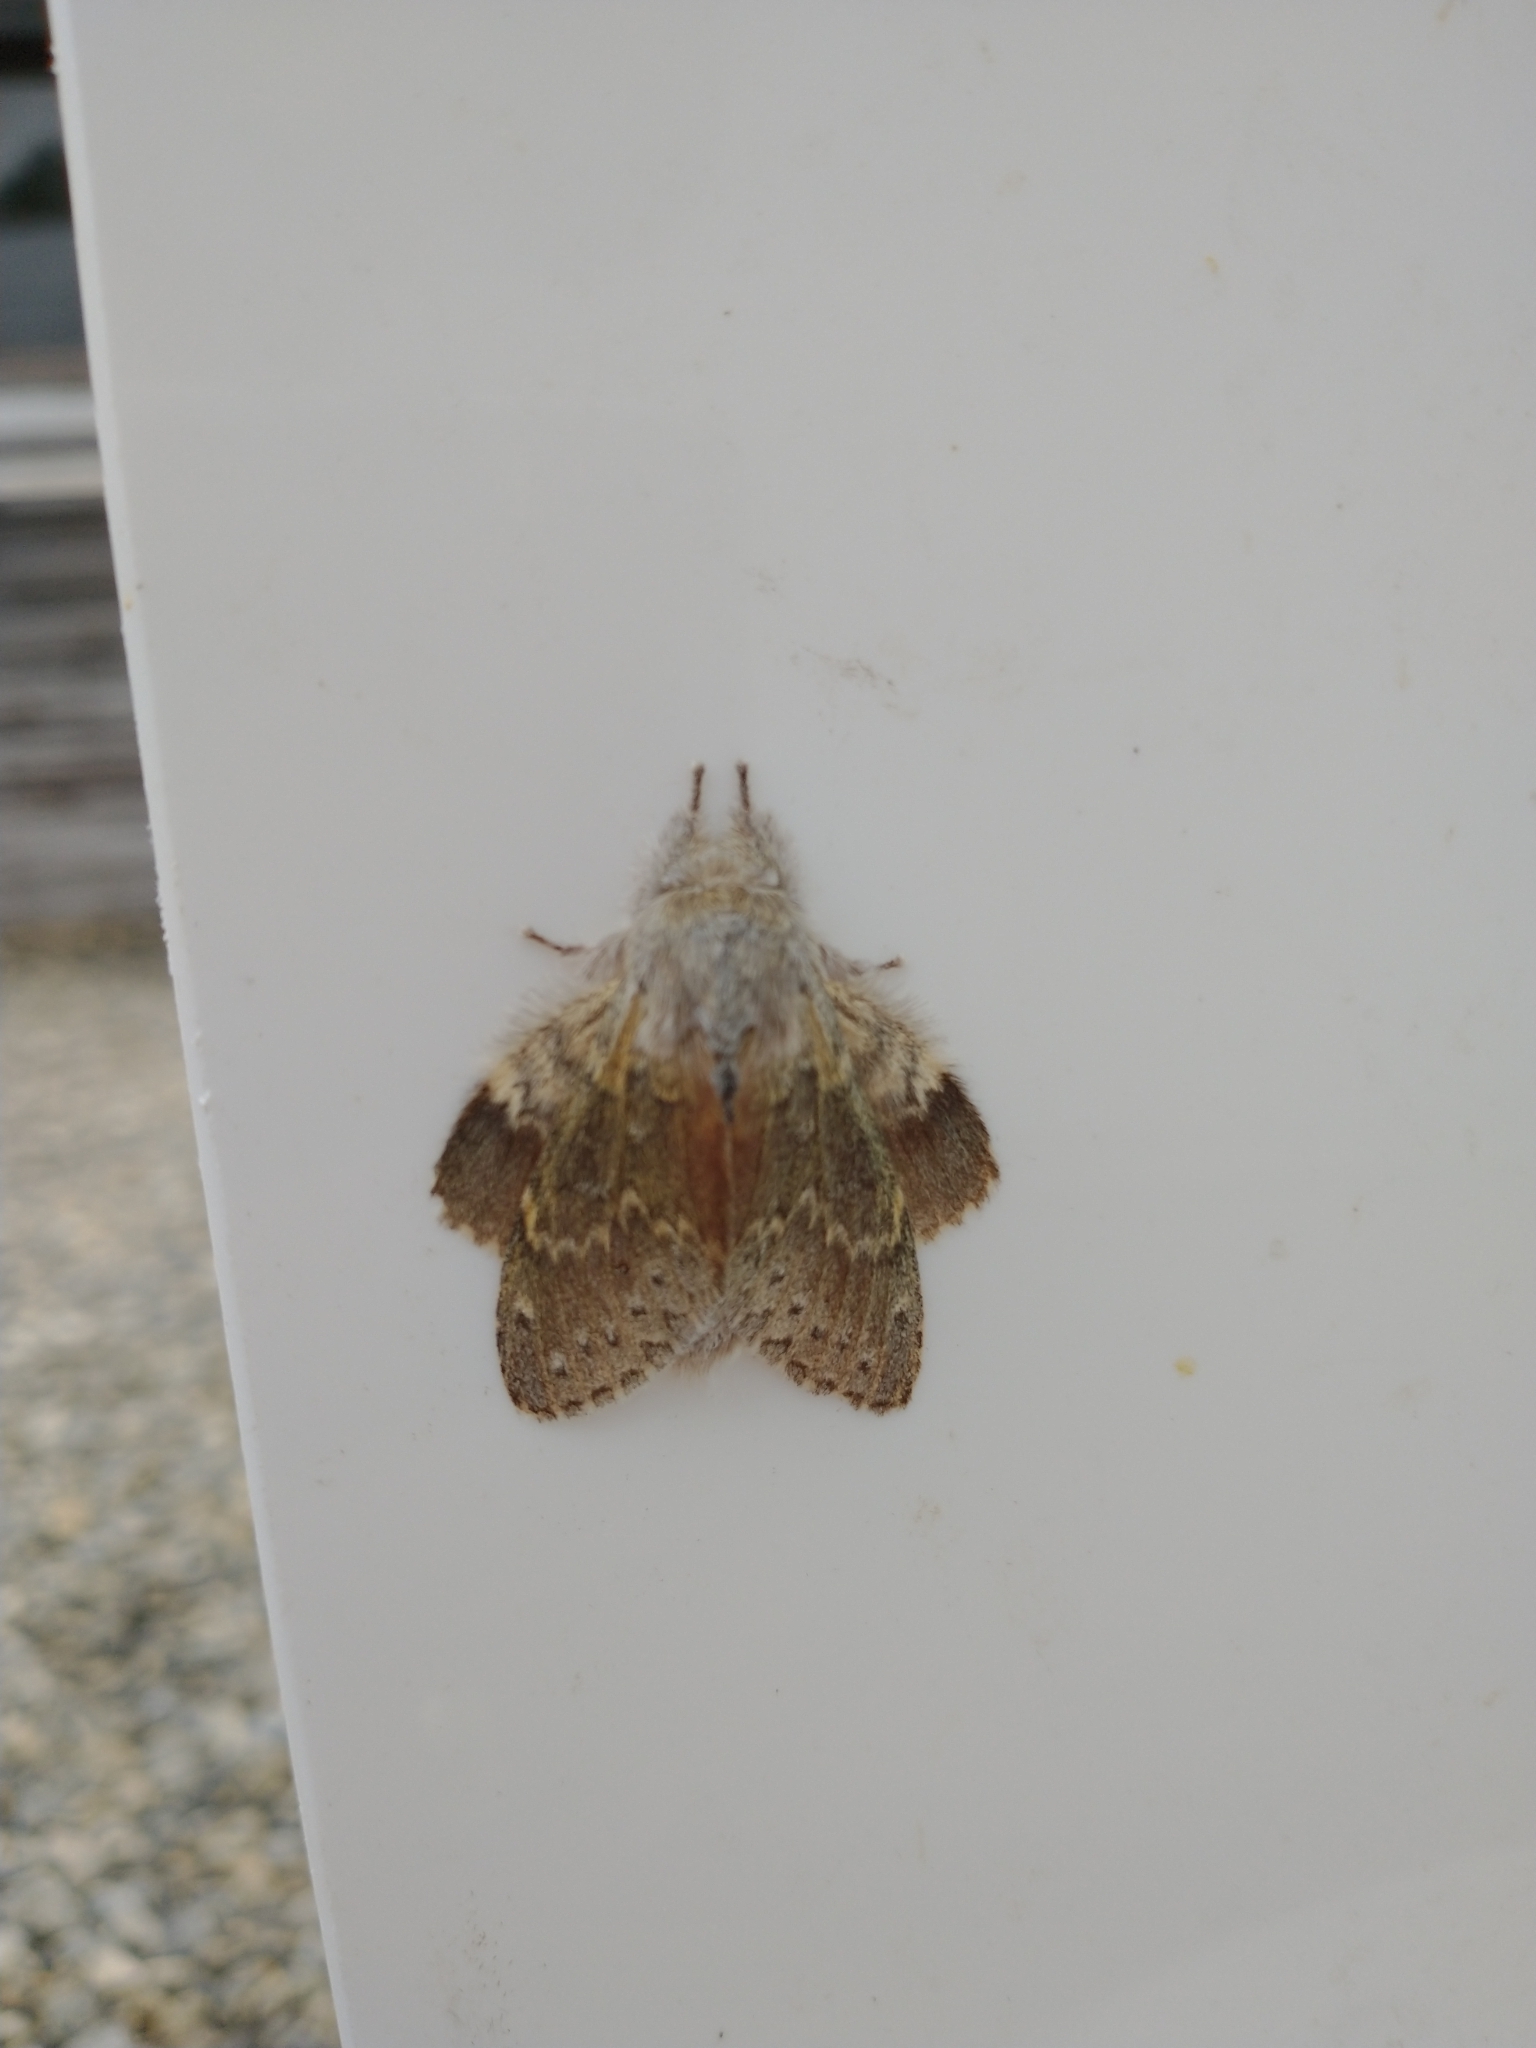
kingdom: Animalia
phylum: Arthropoda
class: Insecta
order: Lepidoptera
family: Notodontidae
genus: Stauropus
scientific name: Stauropus fagi
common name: Lobster moth
